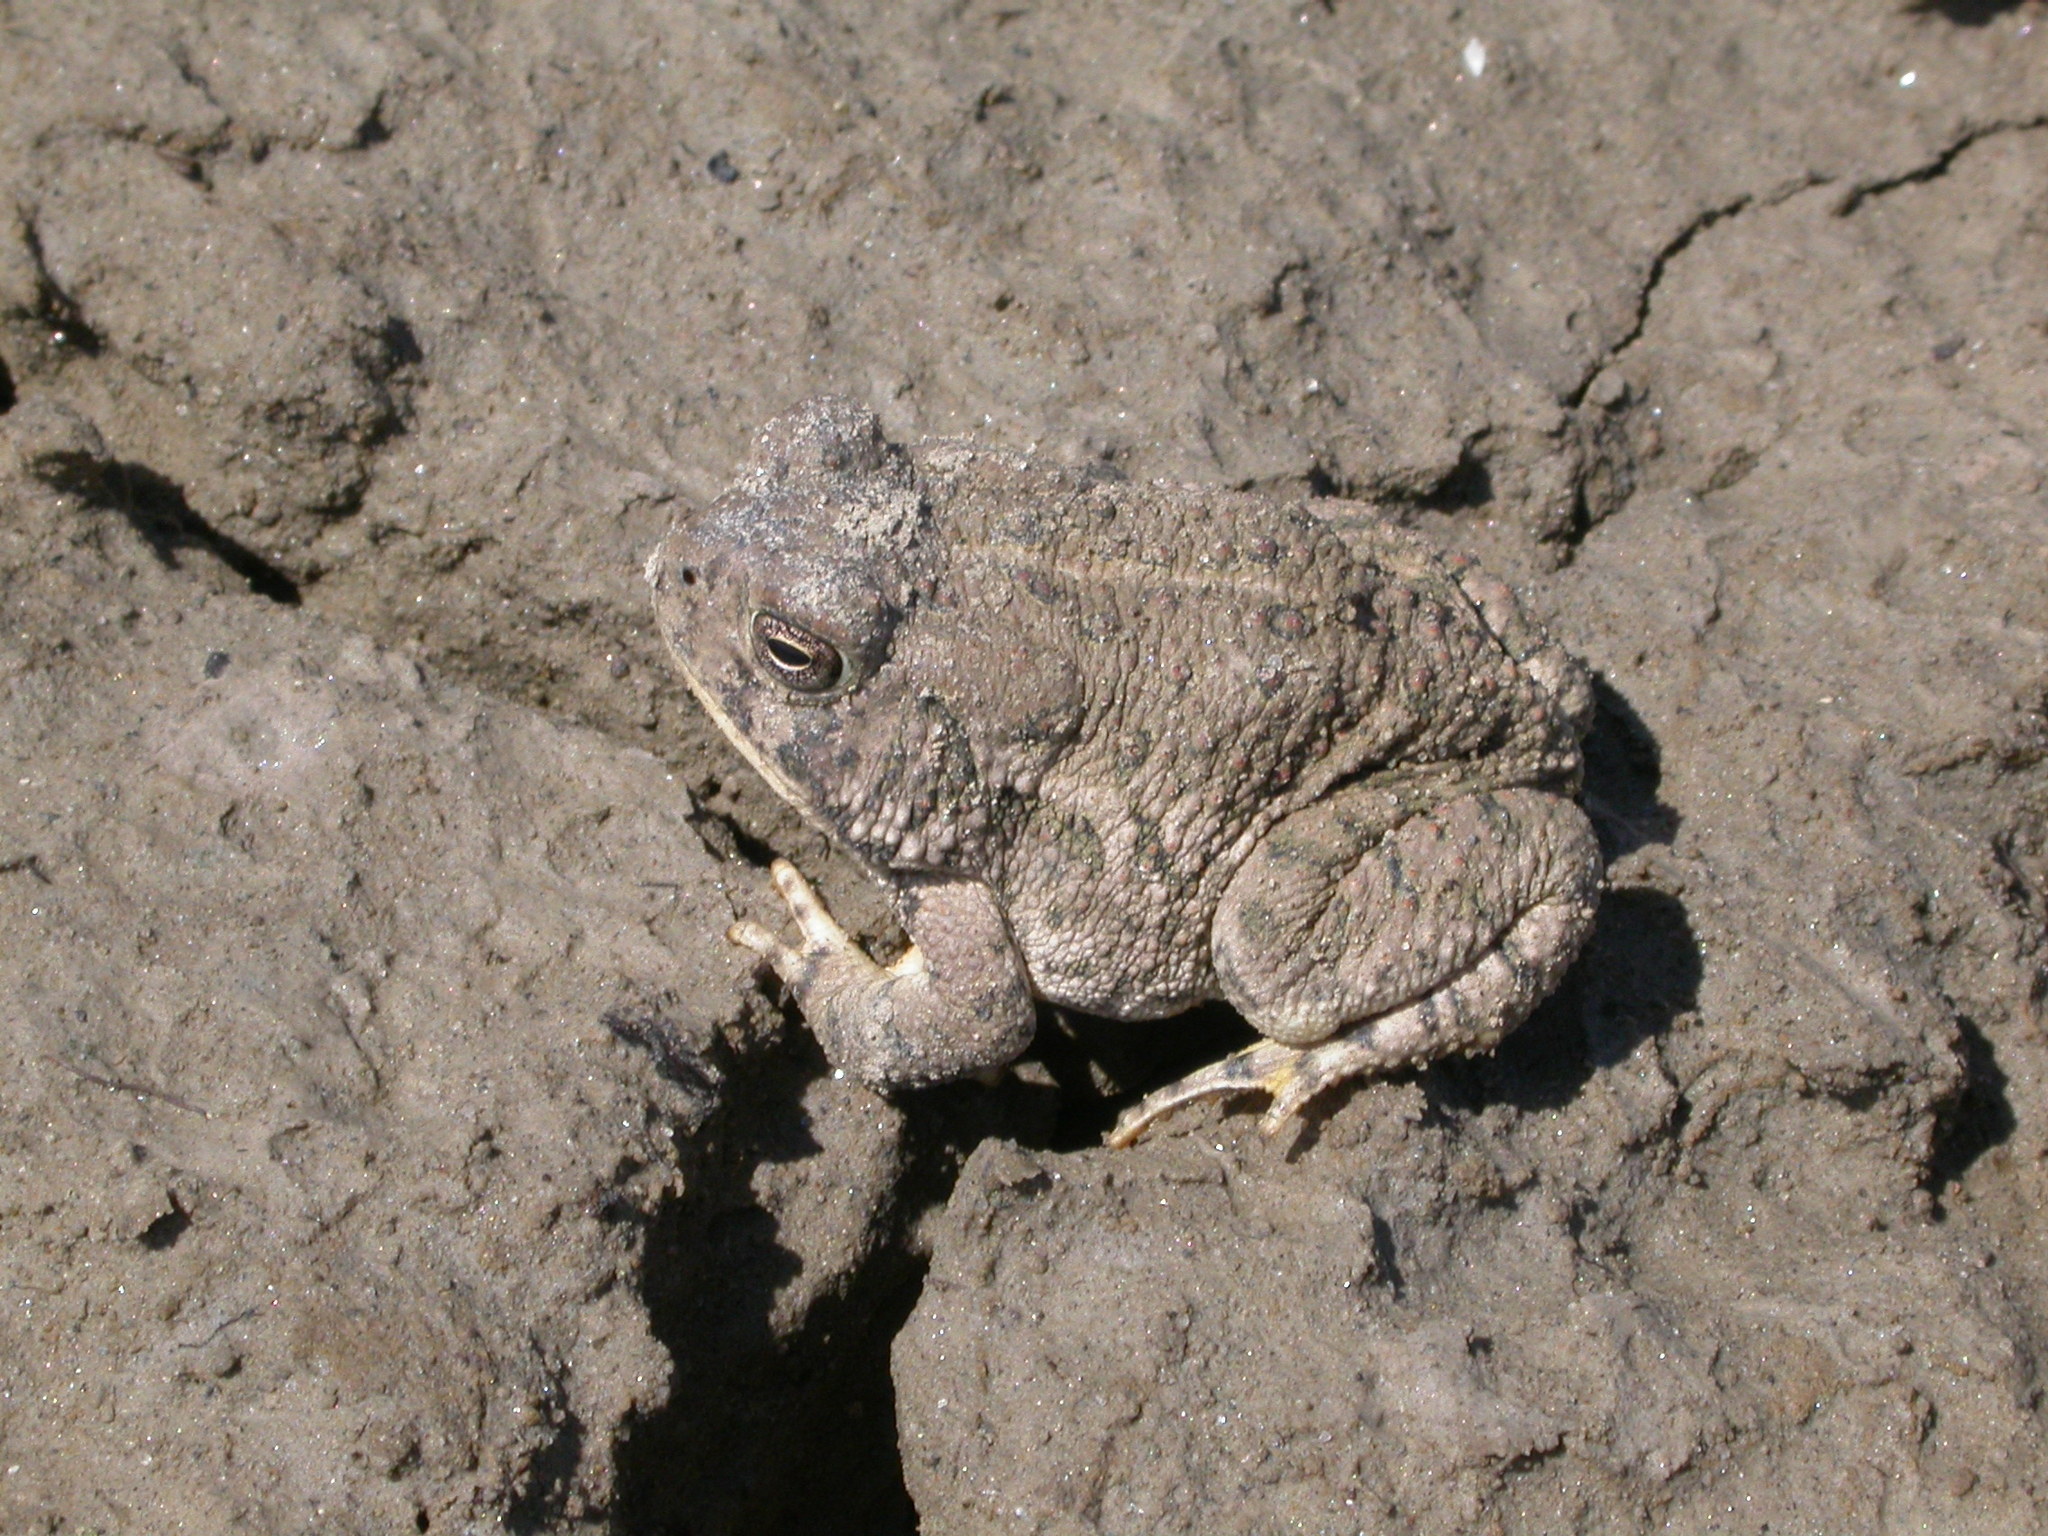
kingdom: Animalia
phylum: Chordata
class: Amphibia
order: Anura
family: Bufonidae
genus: Anaxyrus
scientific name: Anaxyrus woodhousii
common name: Woodhouse's toad
